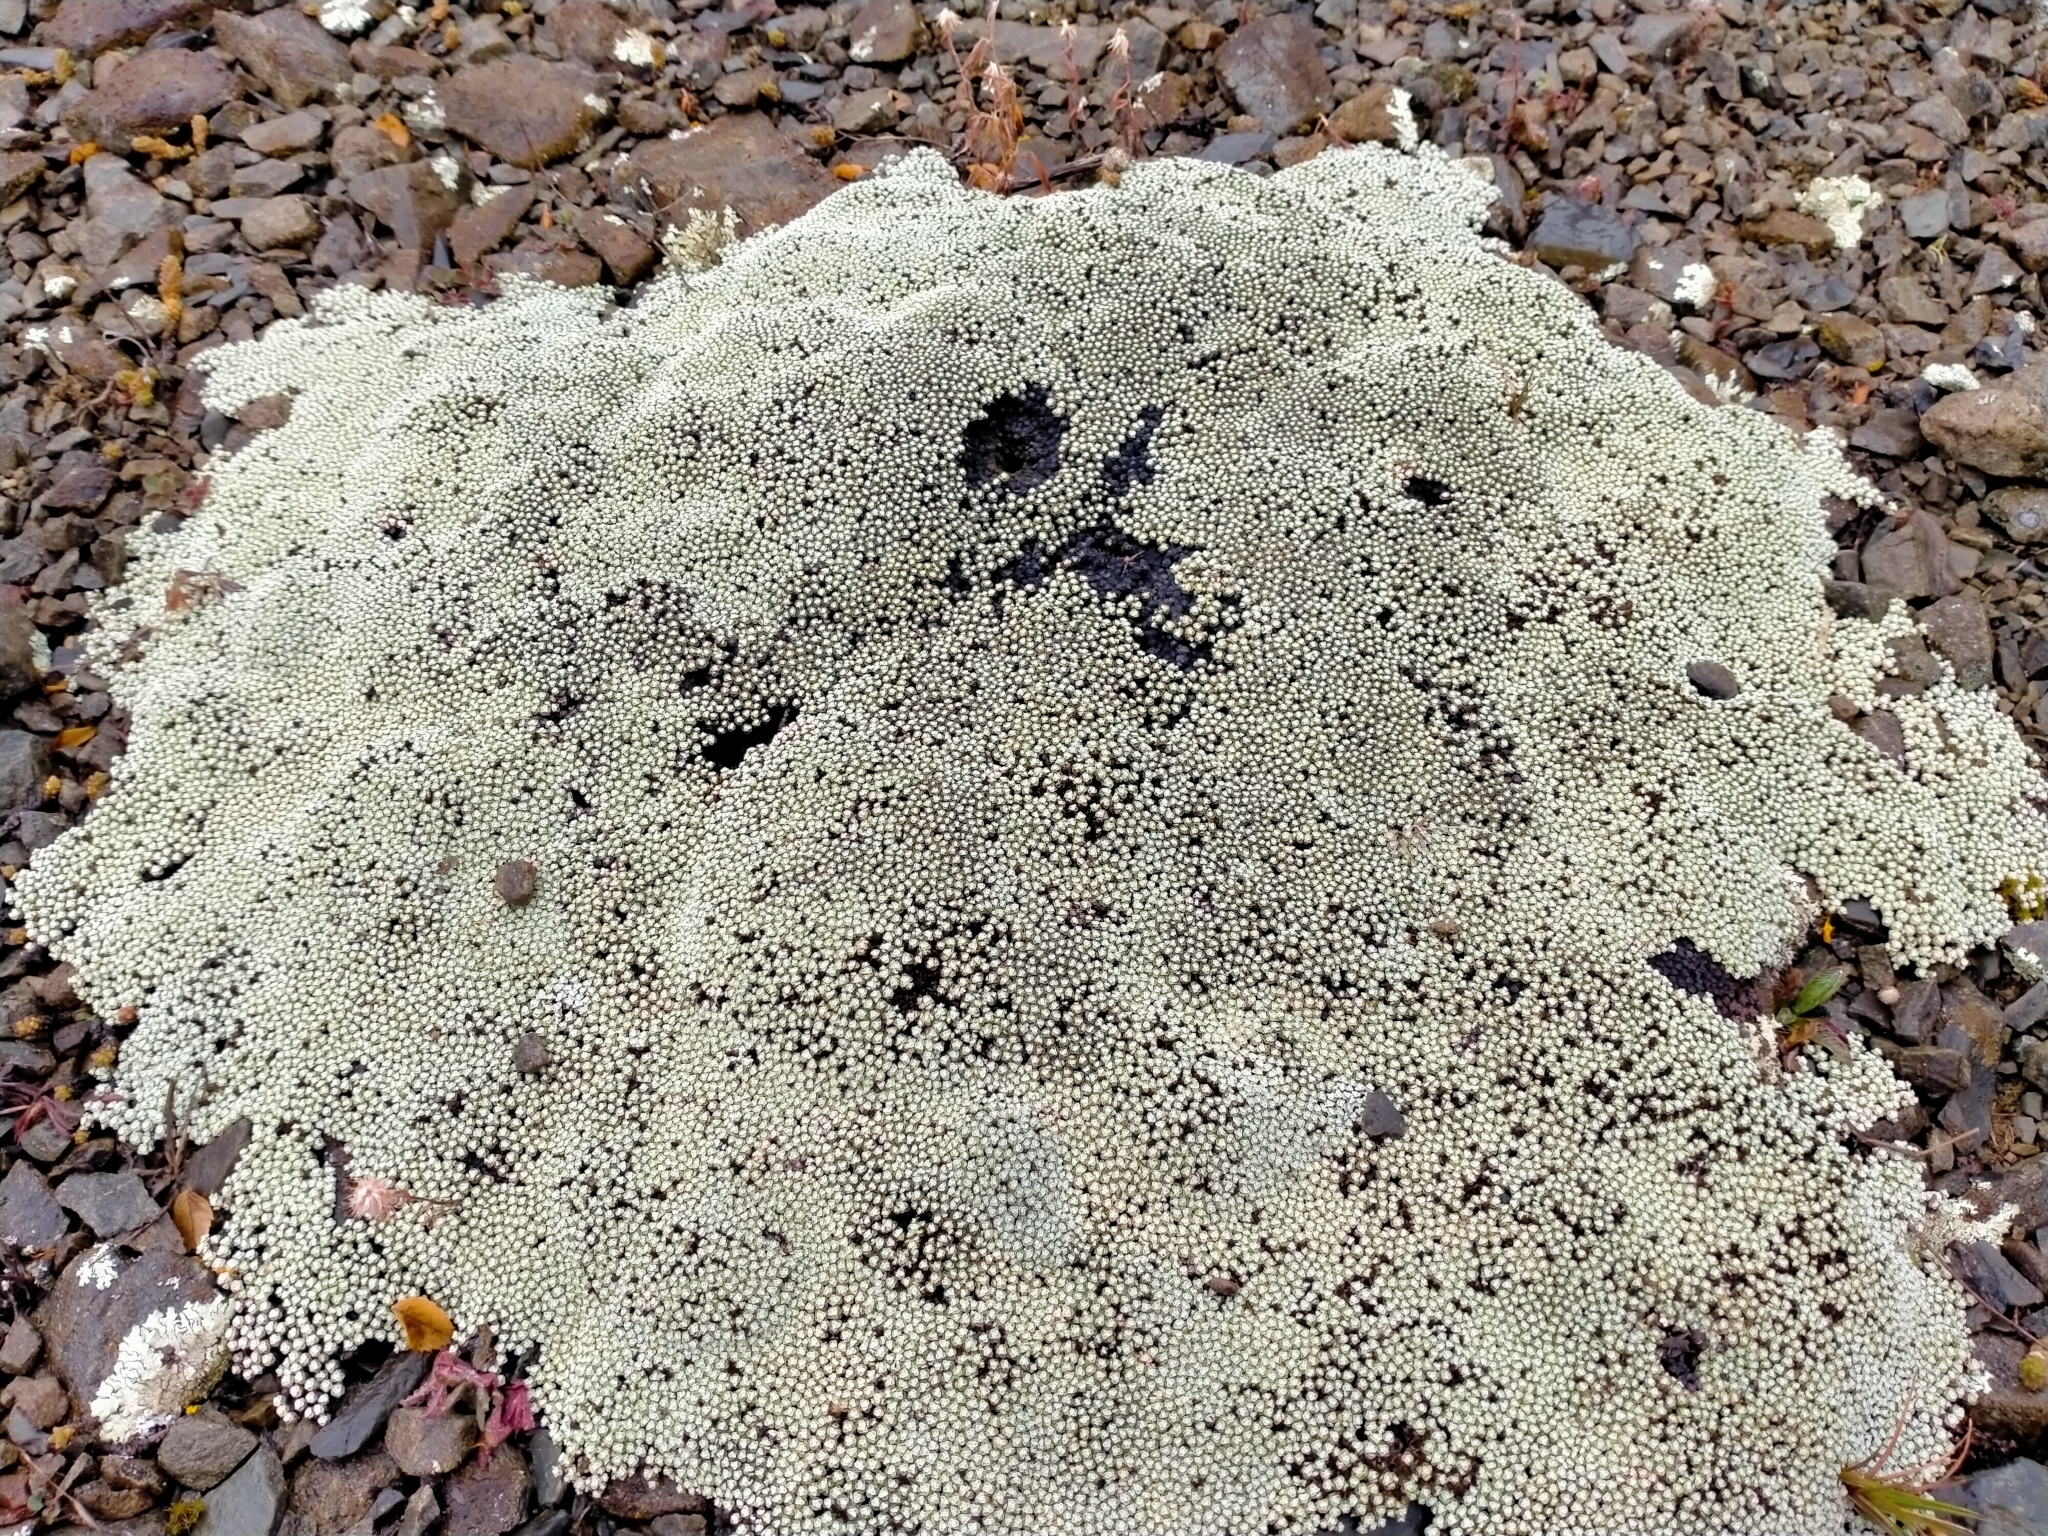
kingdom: Plantae
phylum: Tracheophyta
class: Magnoliopsida
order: Asterales
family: Asteraceae
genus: Raoulia
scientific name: Raoulia australis
